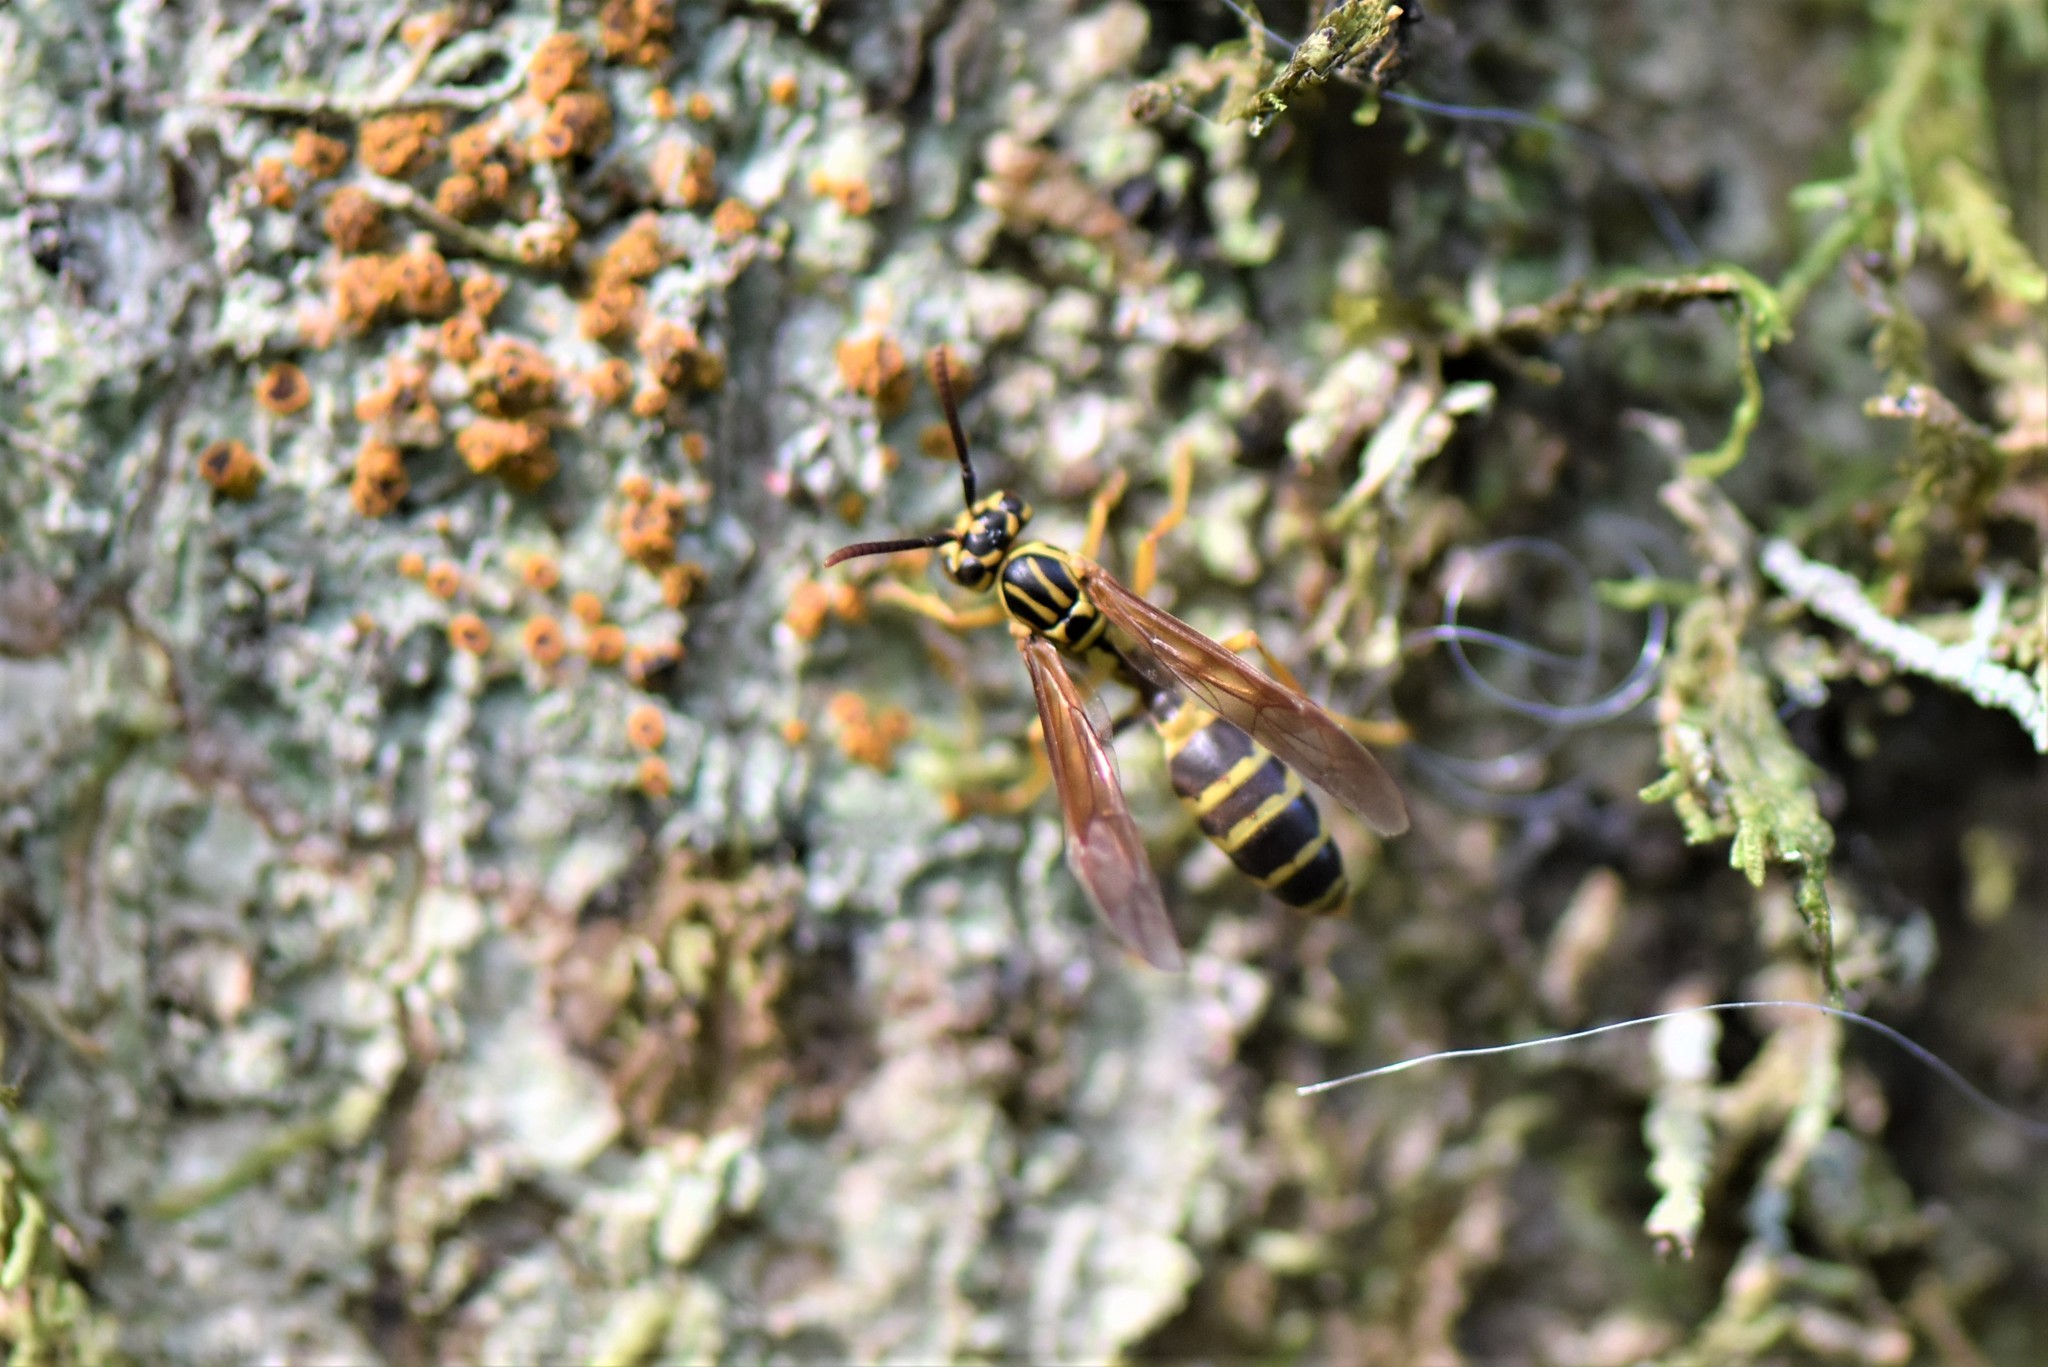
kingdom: Animalia
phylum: Arthropoda
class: Insecta
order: Hymenoptera
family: Vespidae
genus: Agelaia
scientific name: Agelaia multipicta
